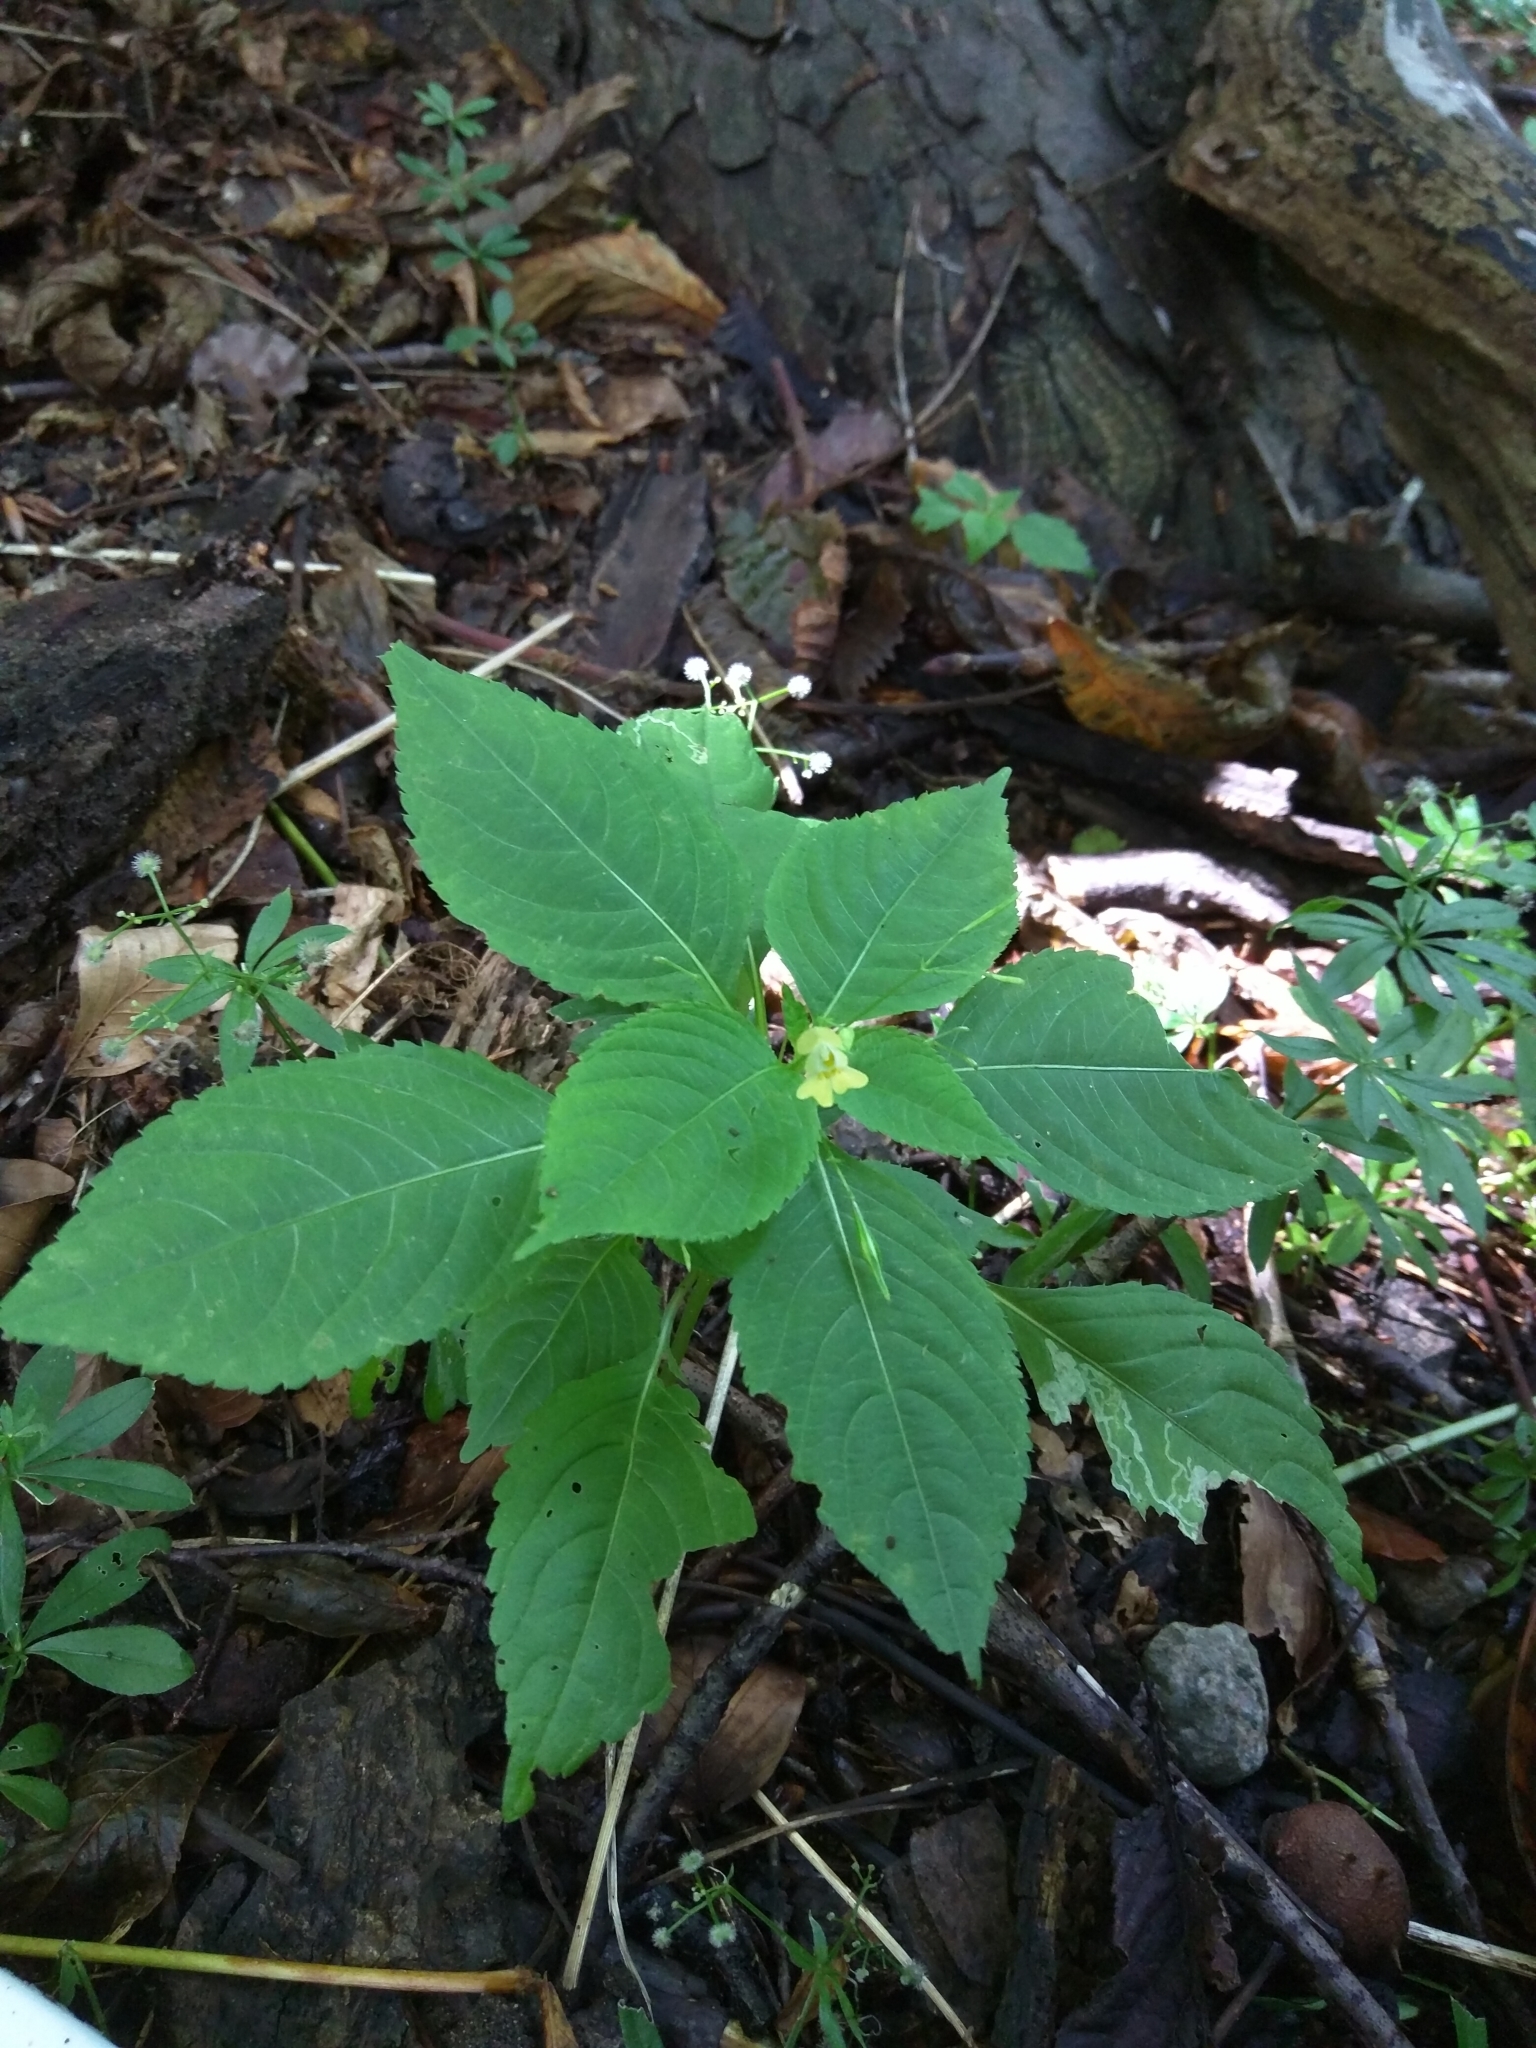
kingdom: Plantae
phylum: Tracheophyta
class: Magnoliopsida
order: Ericales
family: Balsaminaceae
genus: Impatiens
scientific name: Impatiens parviflora
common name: Small balsam
